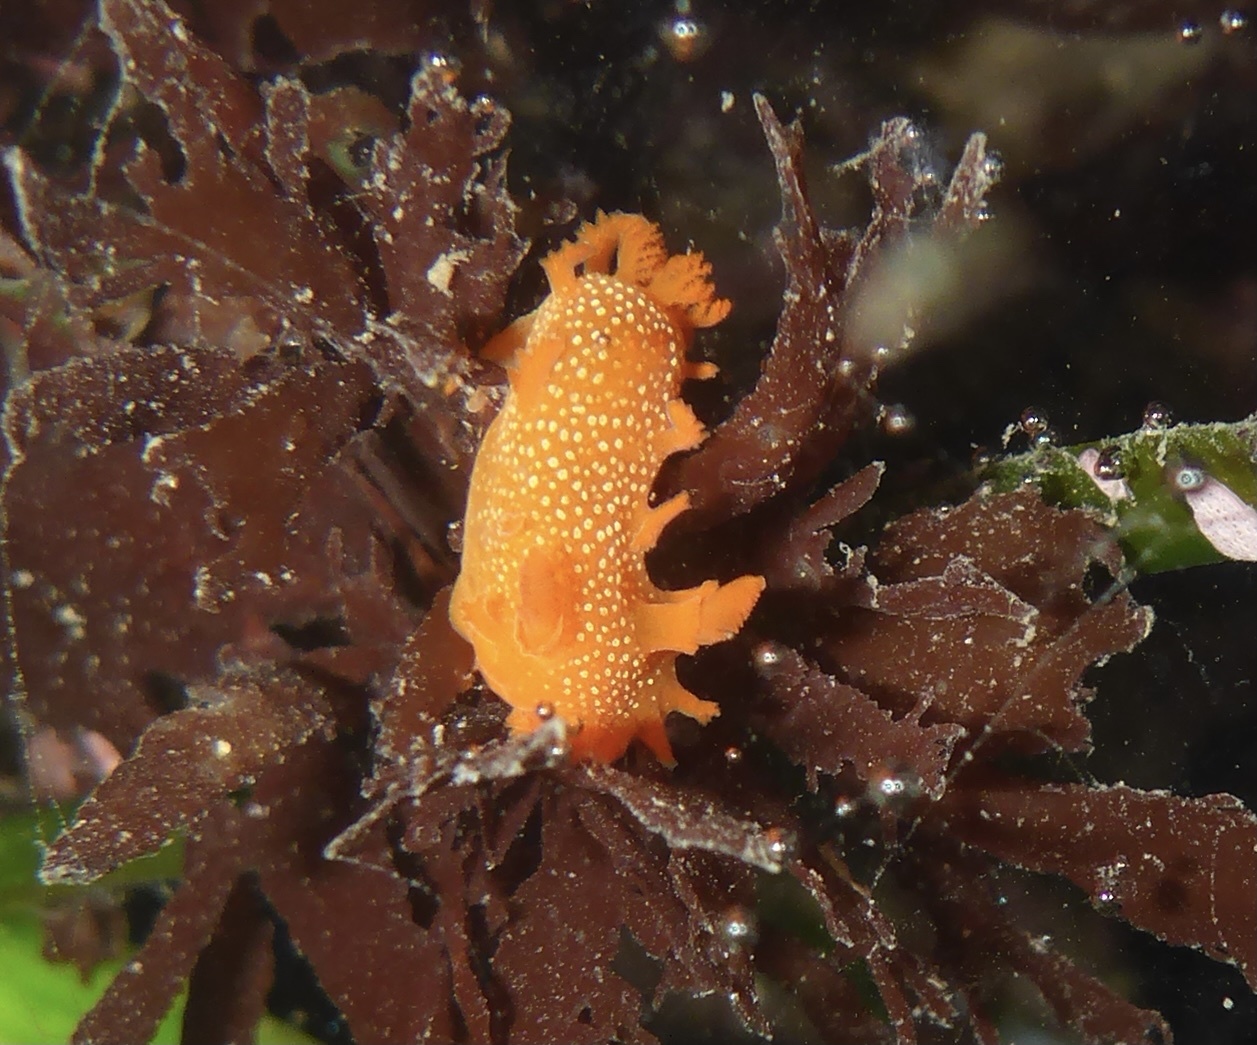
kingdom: Animalia
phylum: Mollusca
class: Gastropoda
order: Nudibranchia
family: Polyceridae
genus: Triopha
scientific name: Triopha maculata
